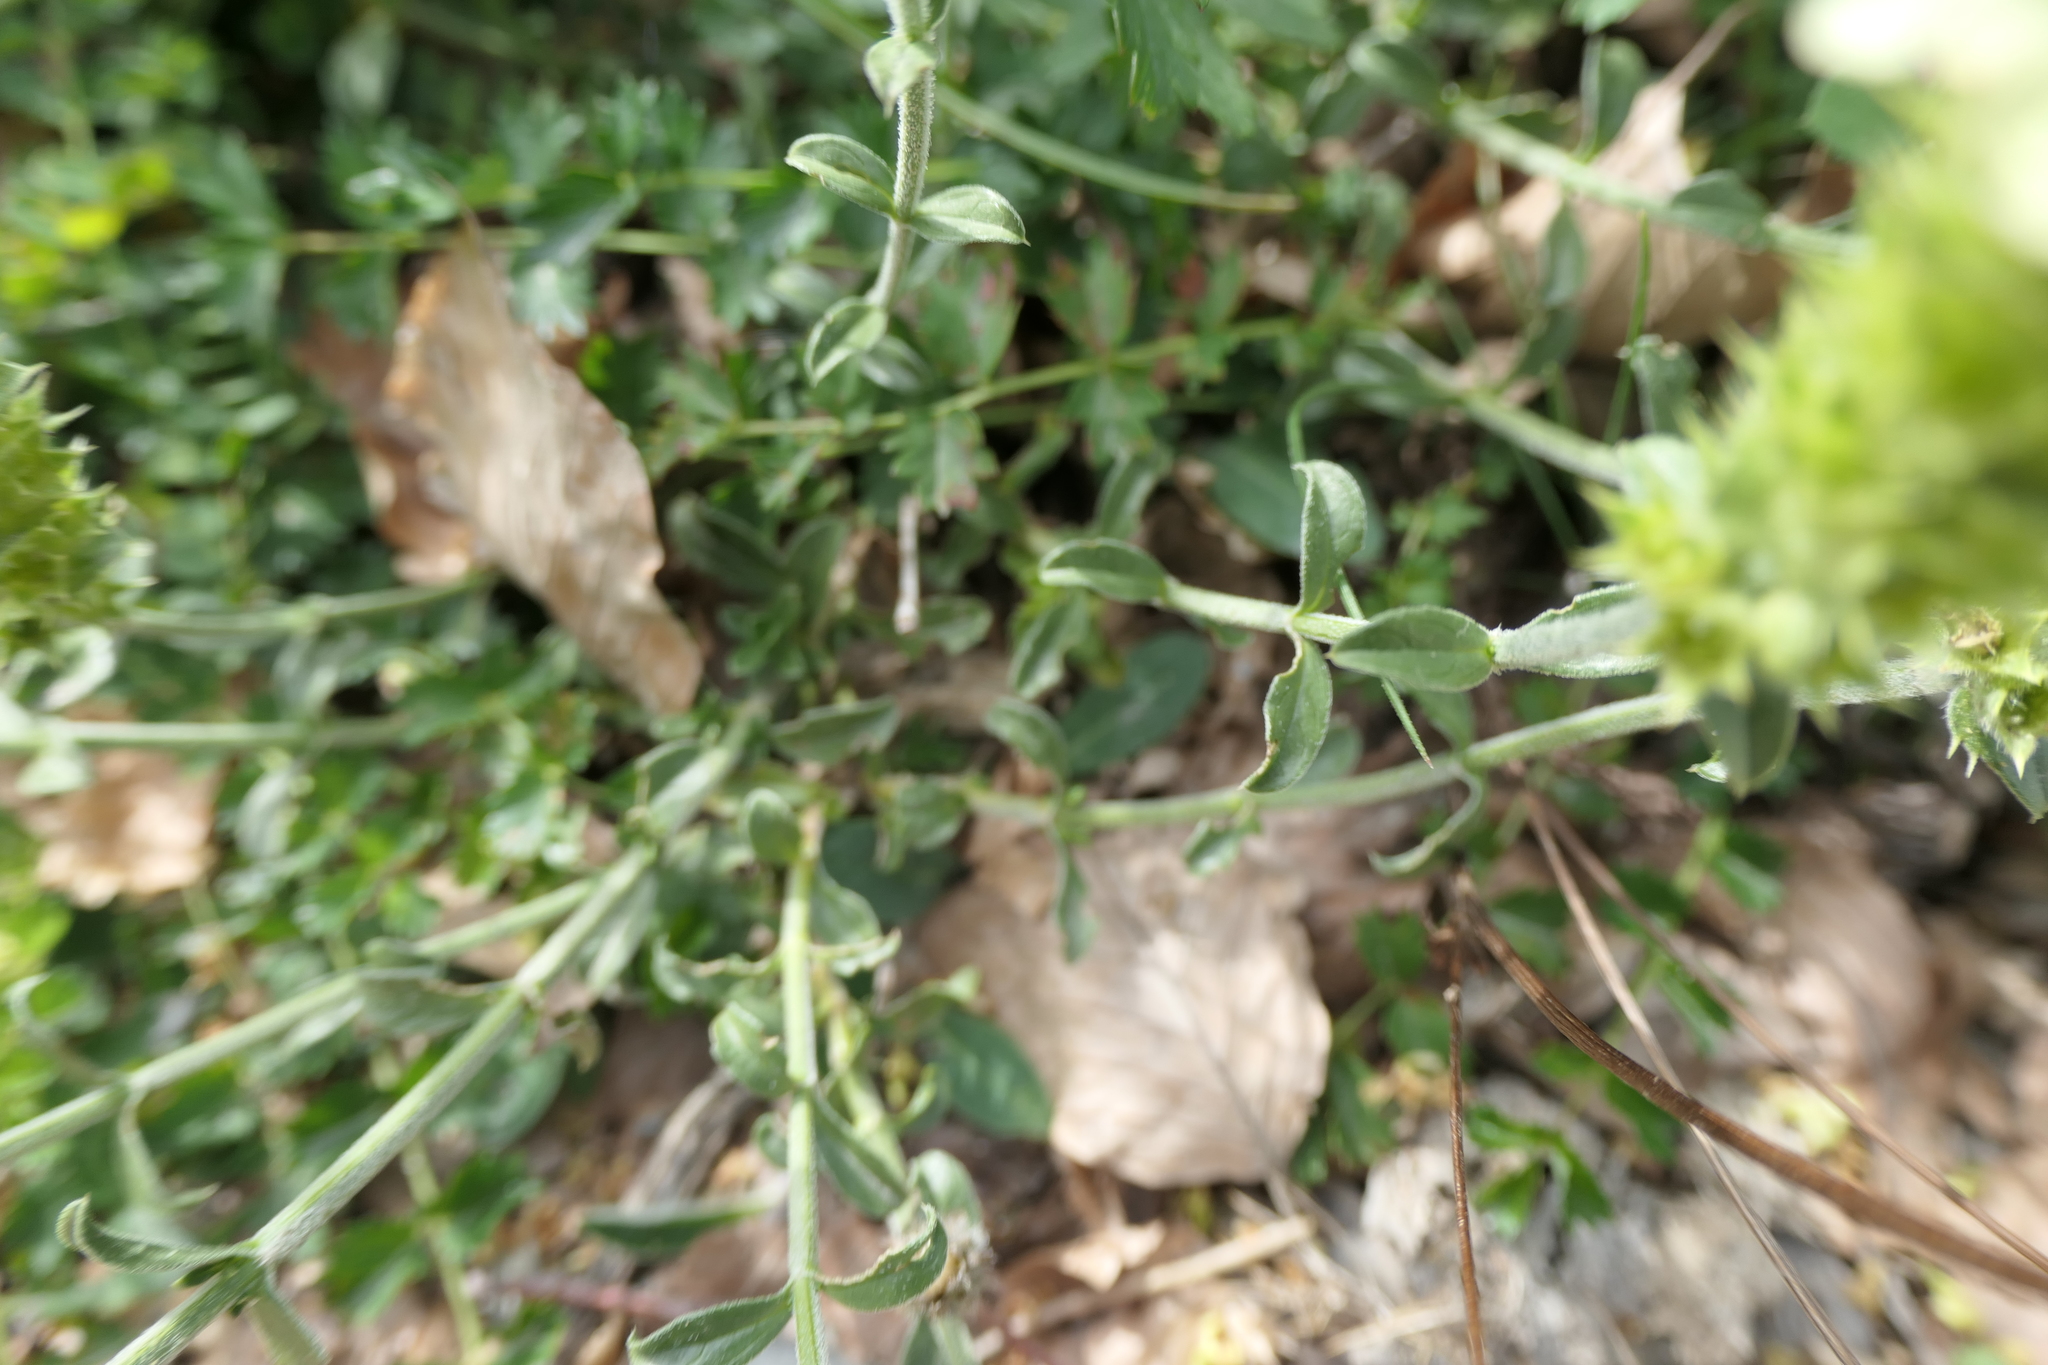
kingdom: Plantae
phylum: Tracheophyta
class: Magnoliopsida
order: Lamiales
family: Lamiaceae
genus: Sideritis
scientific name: Sideritis hyssopifolia
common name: Mountain tea
